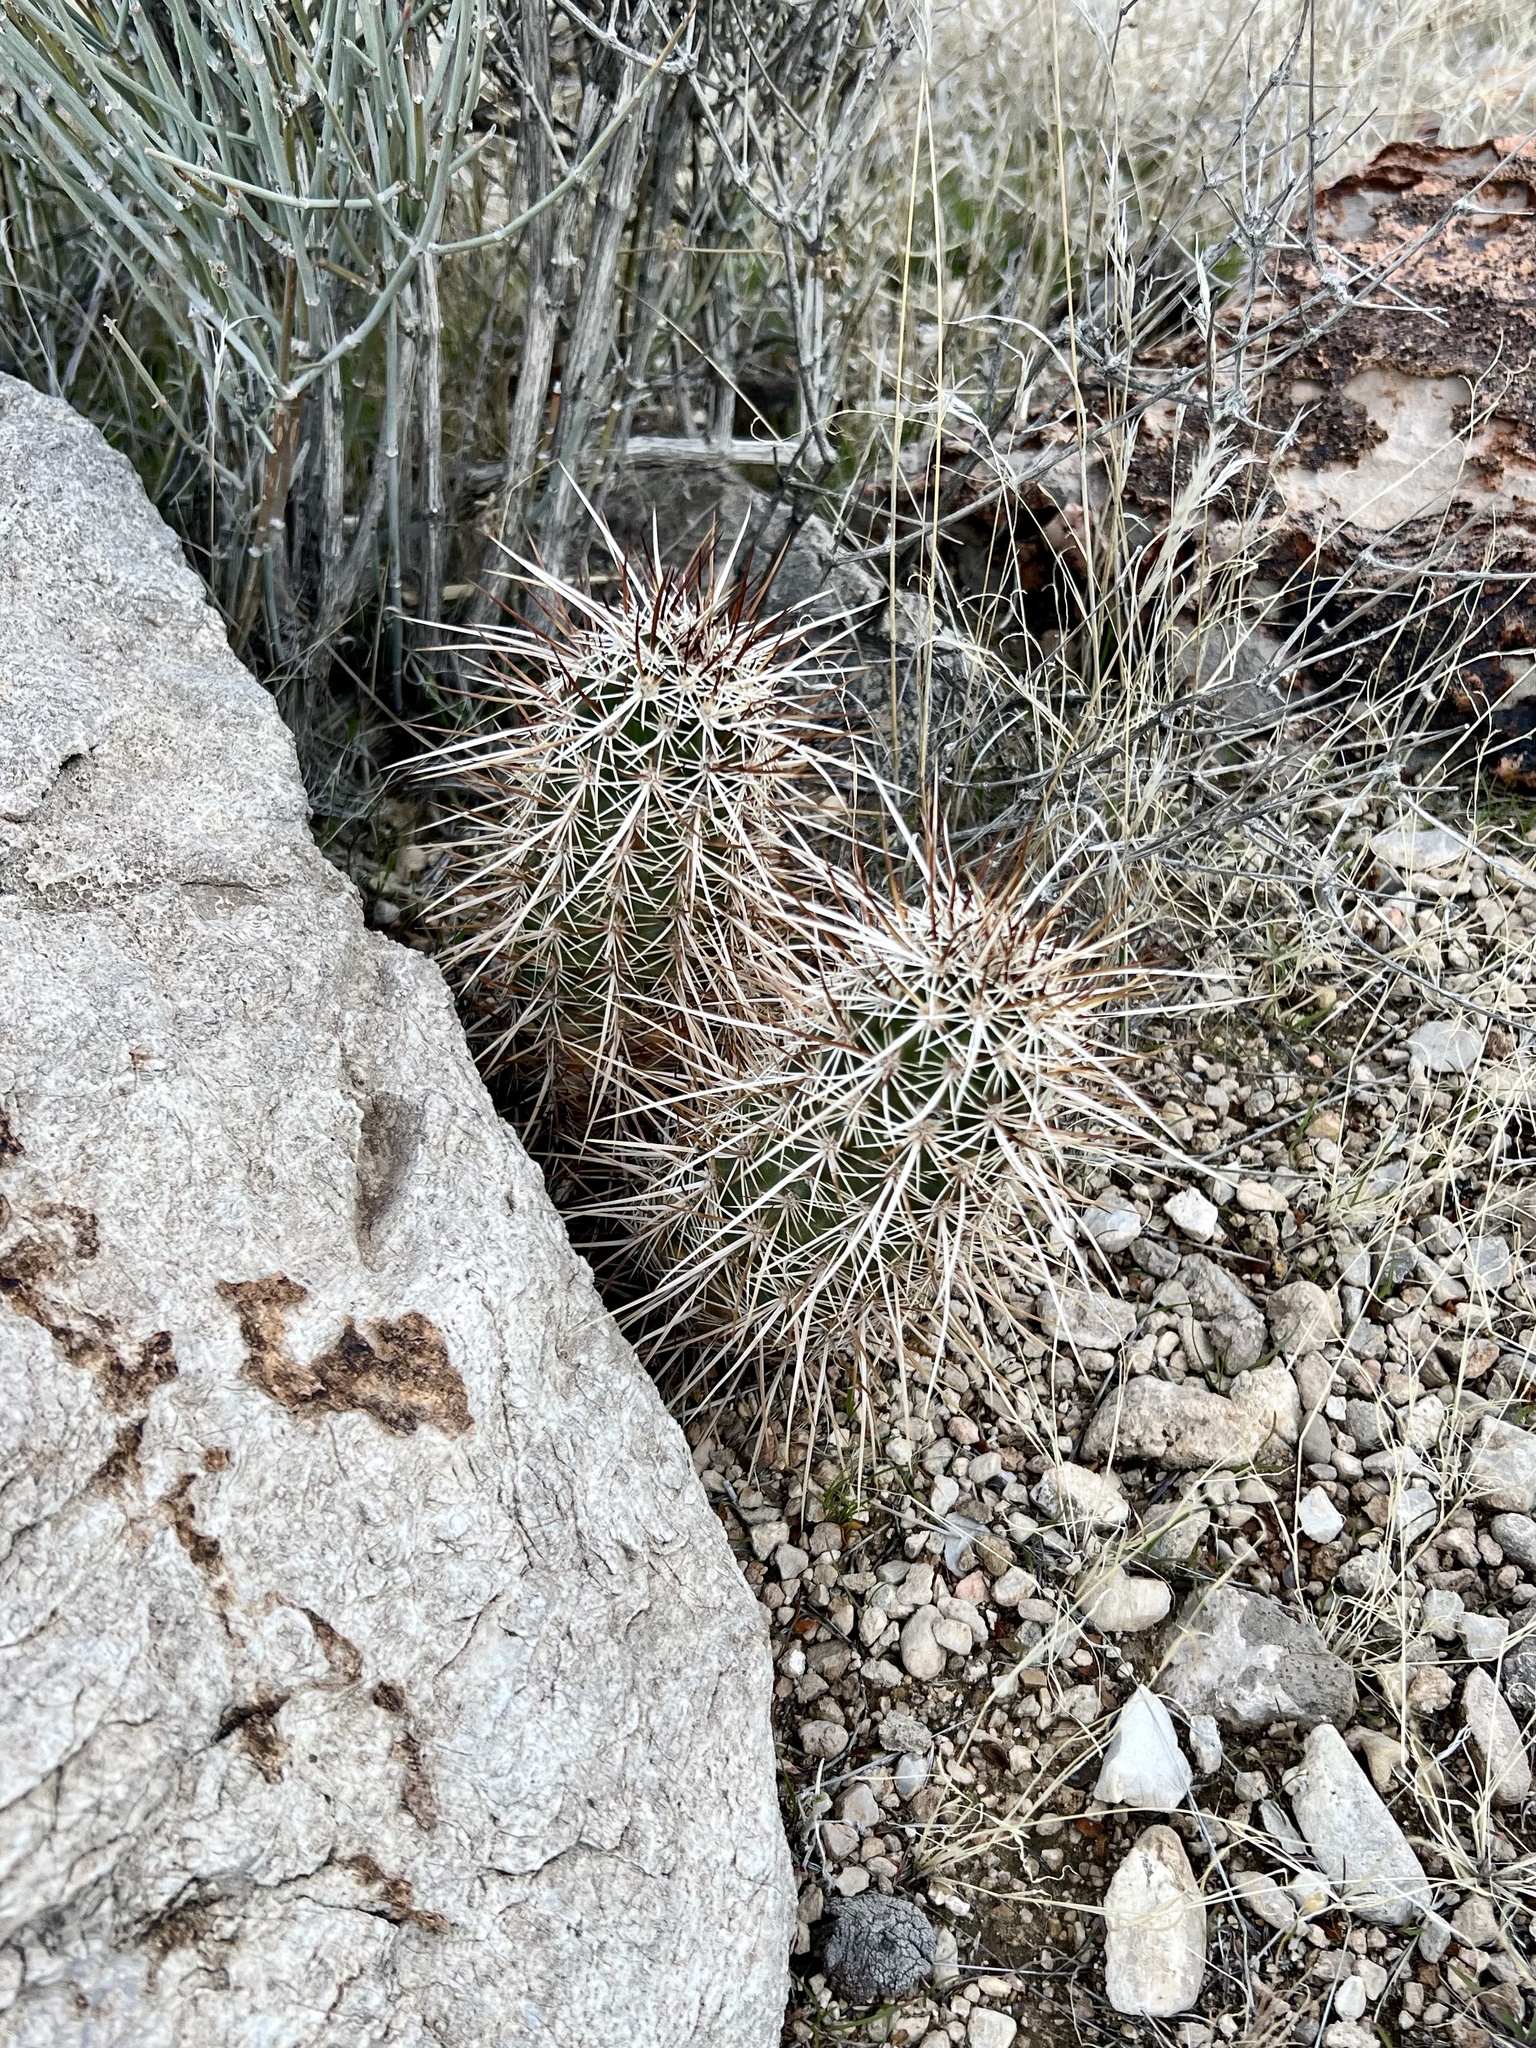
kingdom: Plantae
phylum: Tracheophyta
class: Magnoliopsida
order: Caryophyllales
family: Cactaceae
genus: Echinocereus
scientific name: Echinocereus engelmannii
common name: Engelmann's hedgehog cactus
